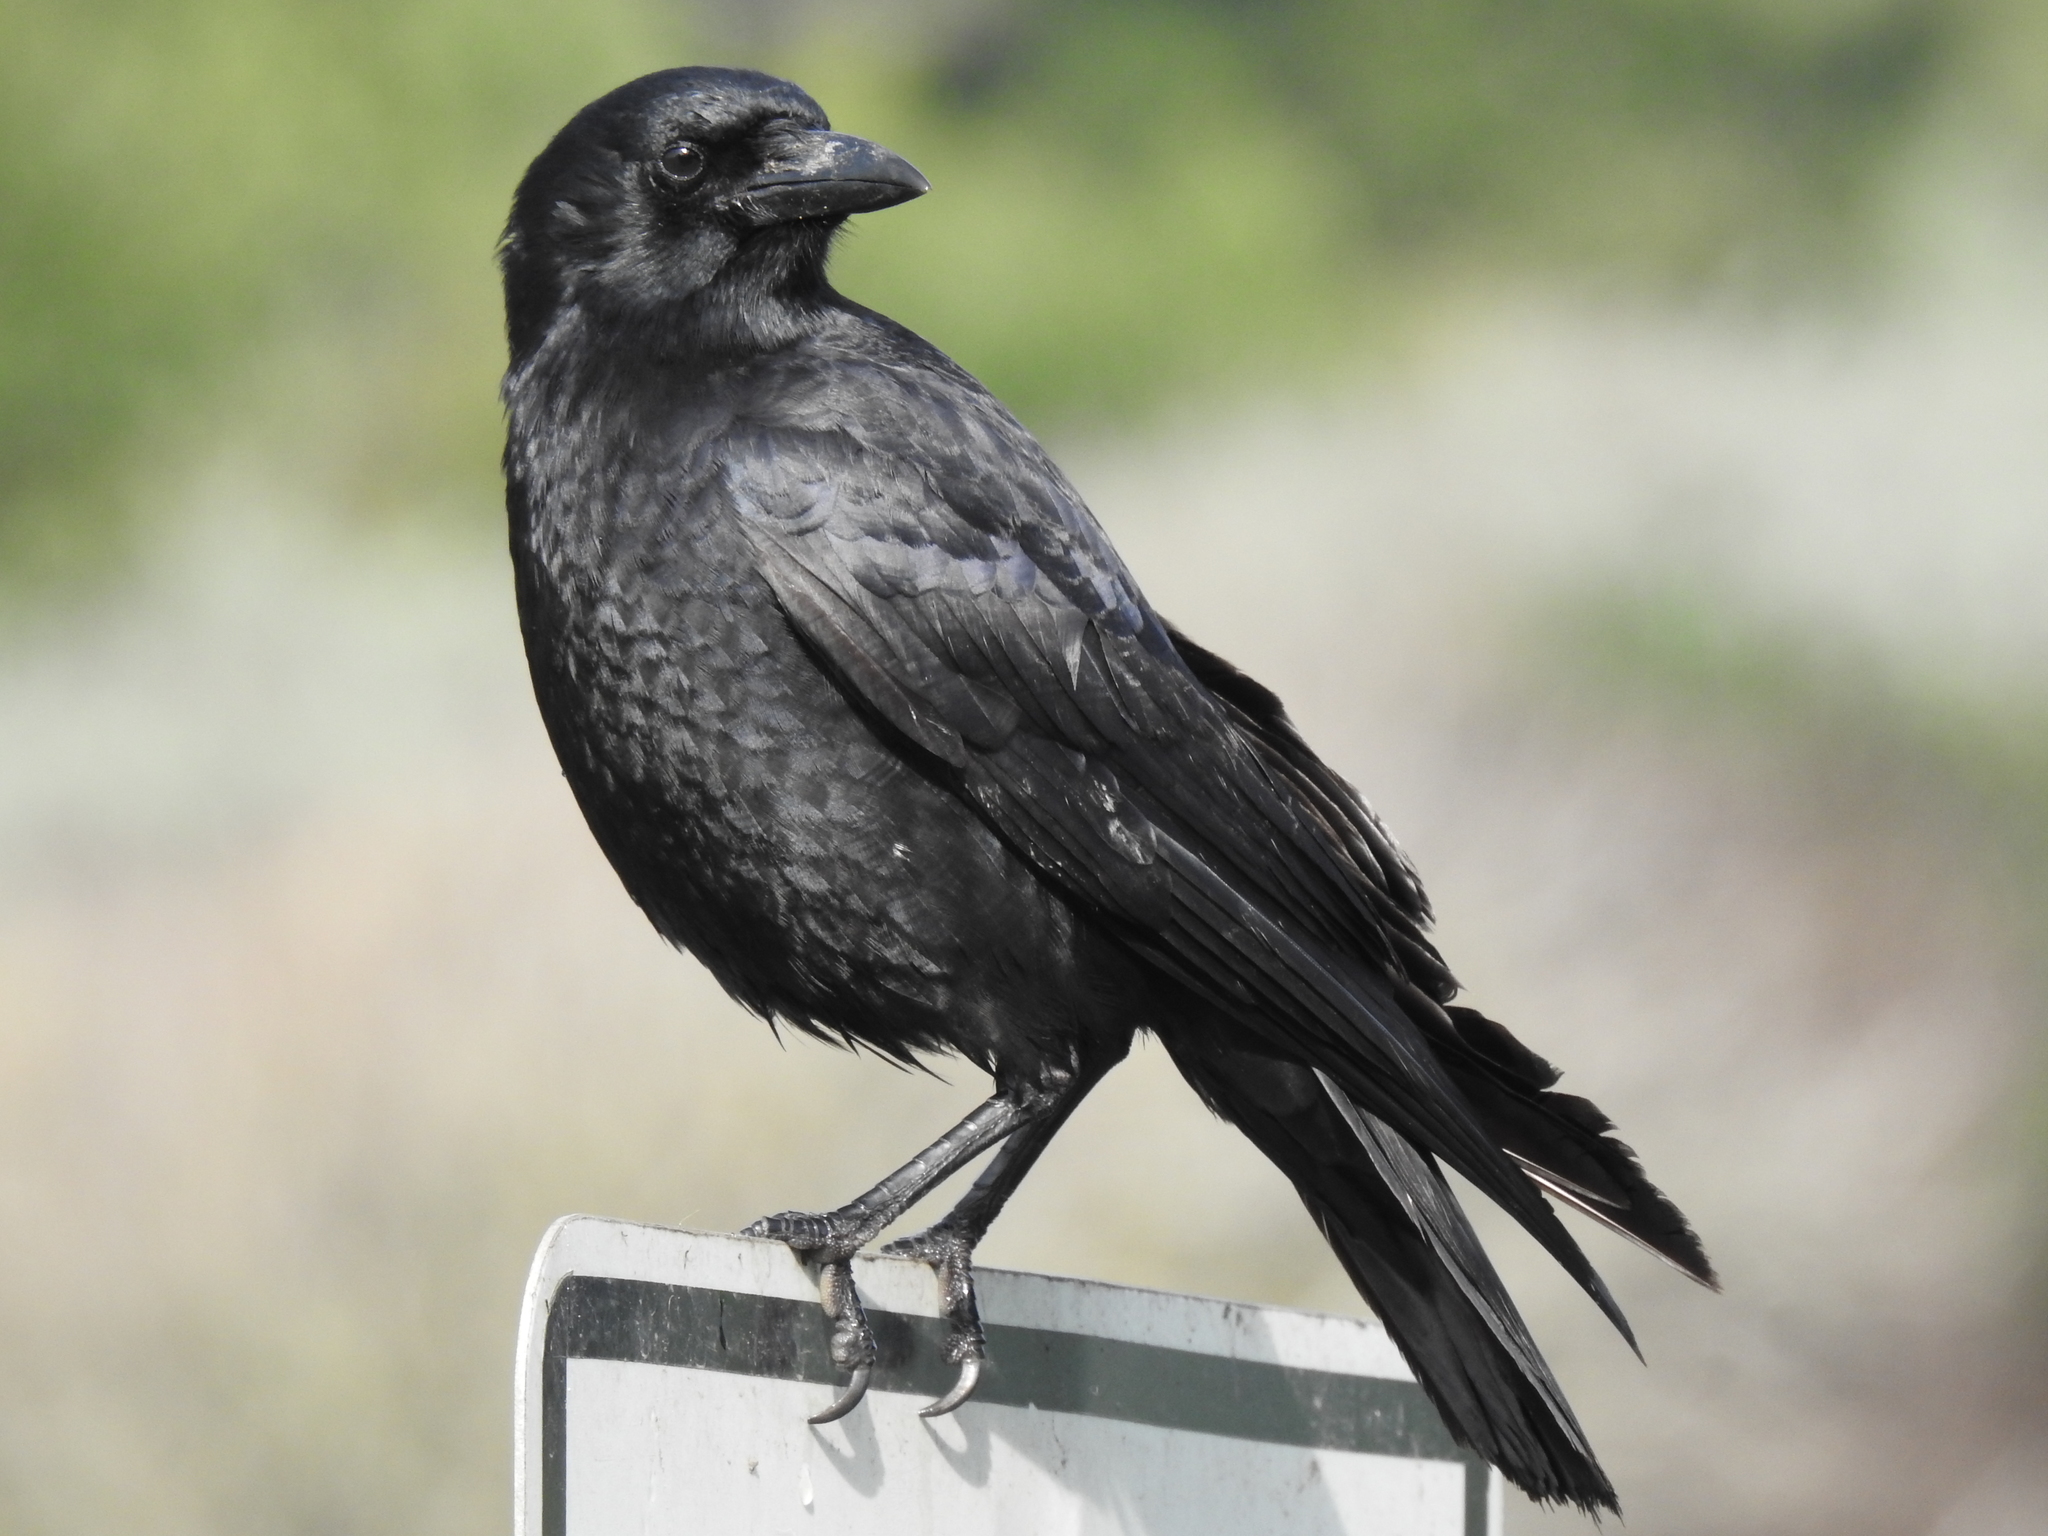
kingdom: Animalia
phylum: Chordata
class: Aves
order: Passeriformes
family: Corvidae
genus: Corvus
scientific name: Corvus brachyrhynchos
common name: American crow
